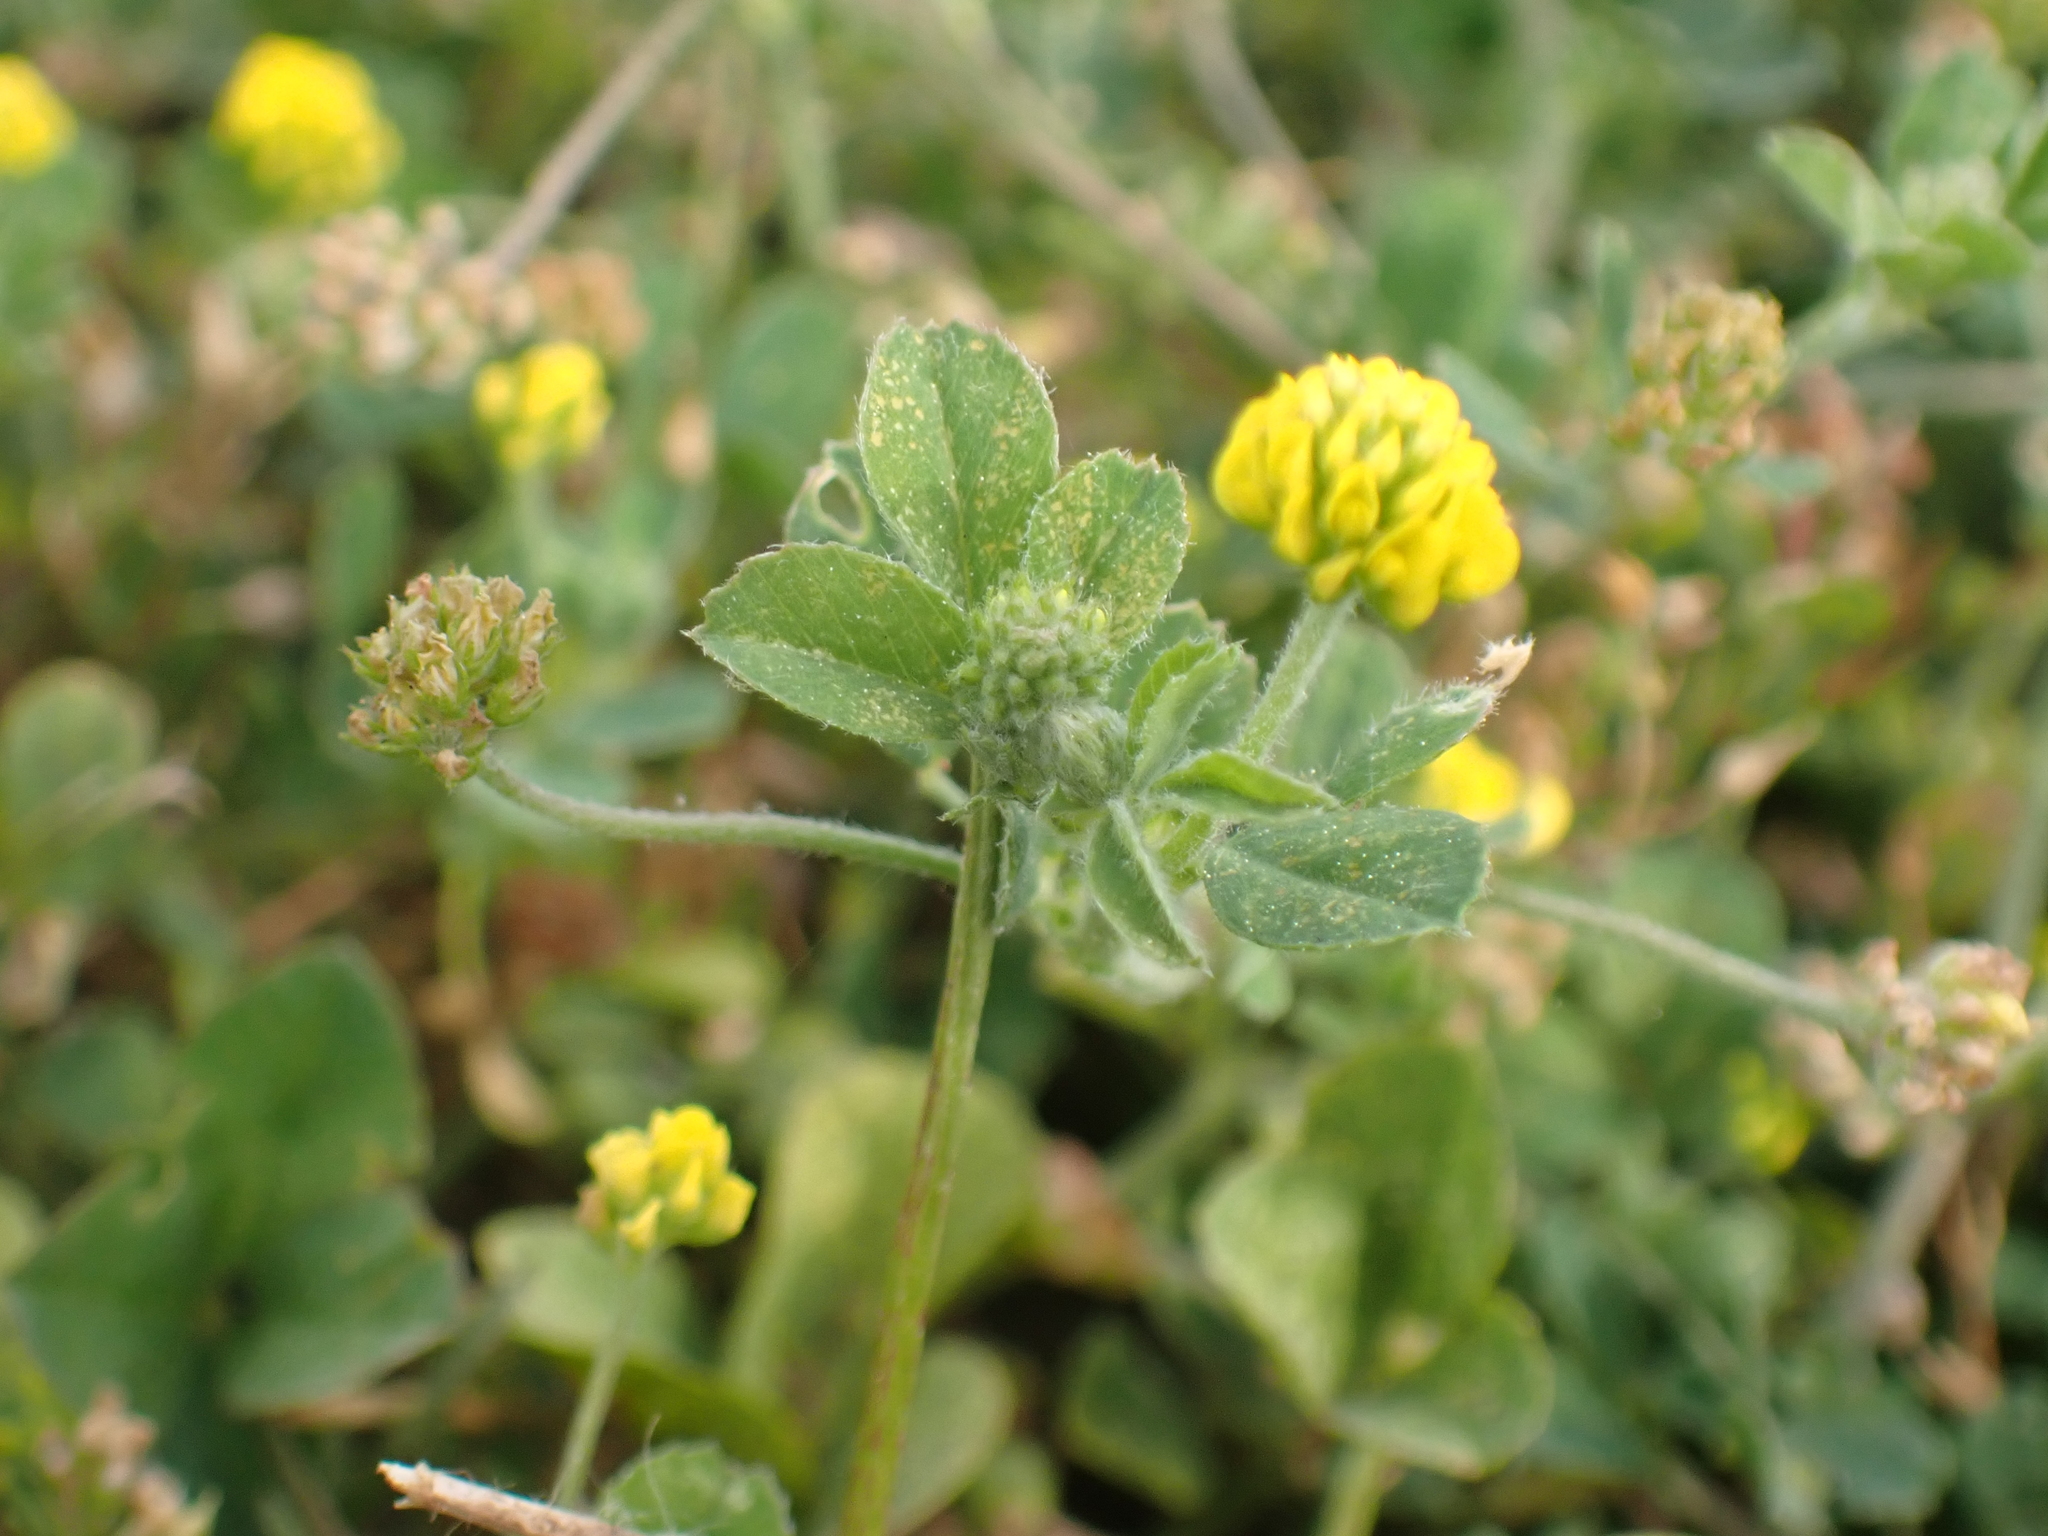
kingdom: Plantae
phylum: Tracheophyta
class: Magnoliopsida
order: Fabales
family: Fabaceae
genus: Medicago
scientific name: Medicago lupulina
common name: Black medick
